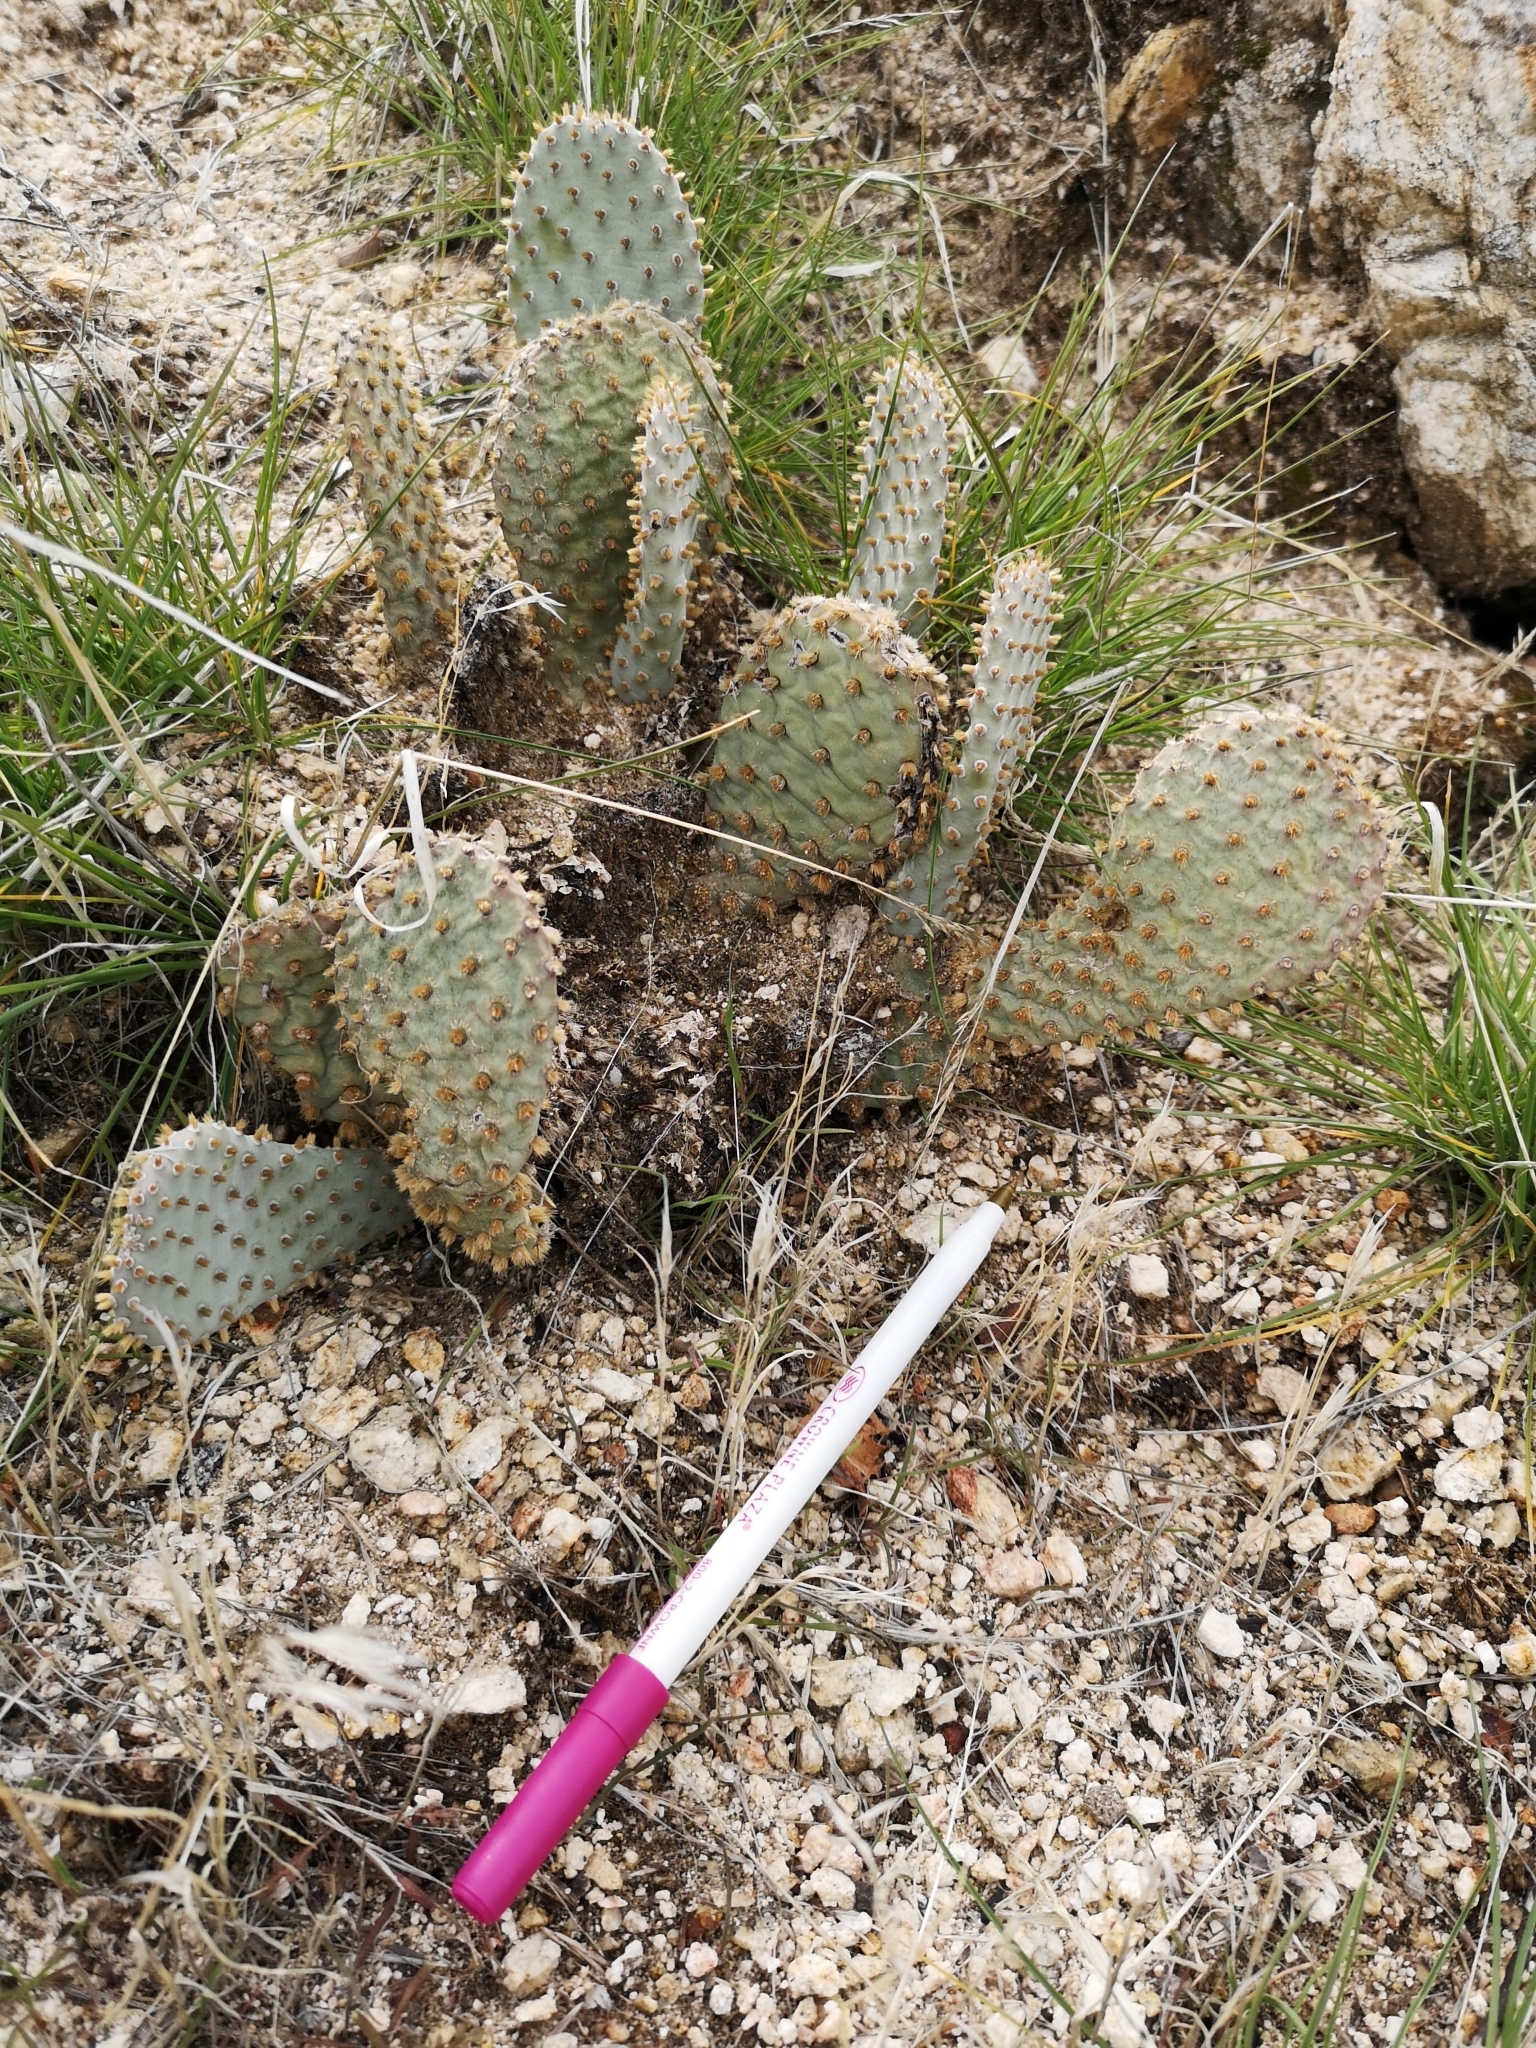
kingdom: Plantae
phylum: Tracheophyta
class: Magnoliopsida
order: Caryophyllales
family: Cactaceae
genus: Opuntia
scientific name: Opuntia basilaris
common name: Beavertail prickly-pear
